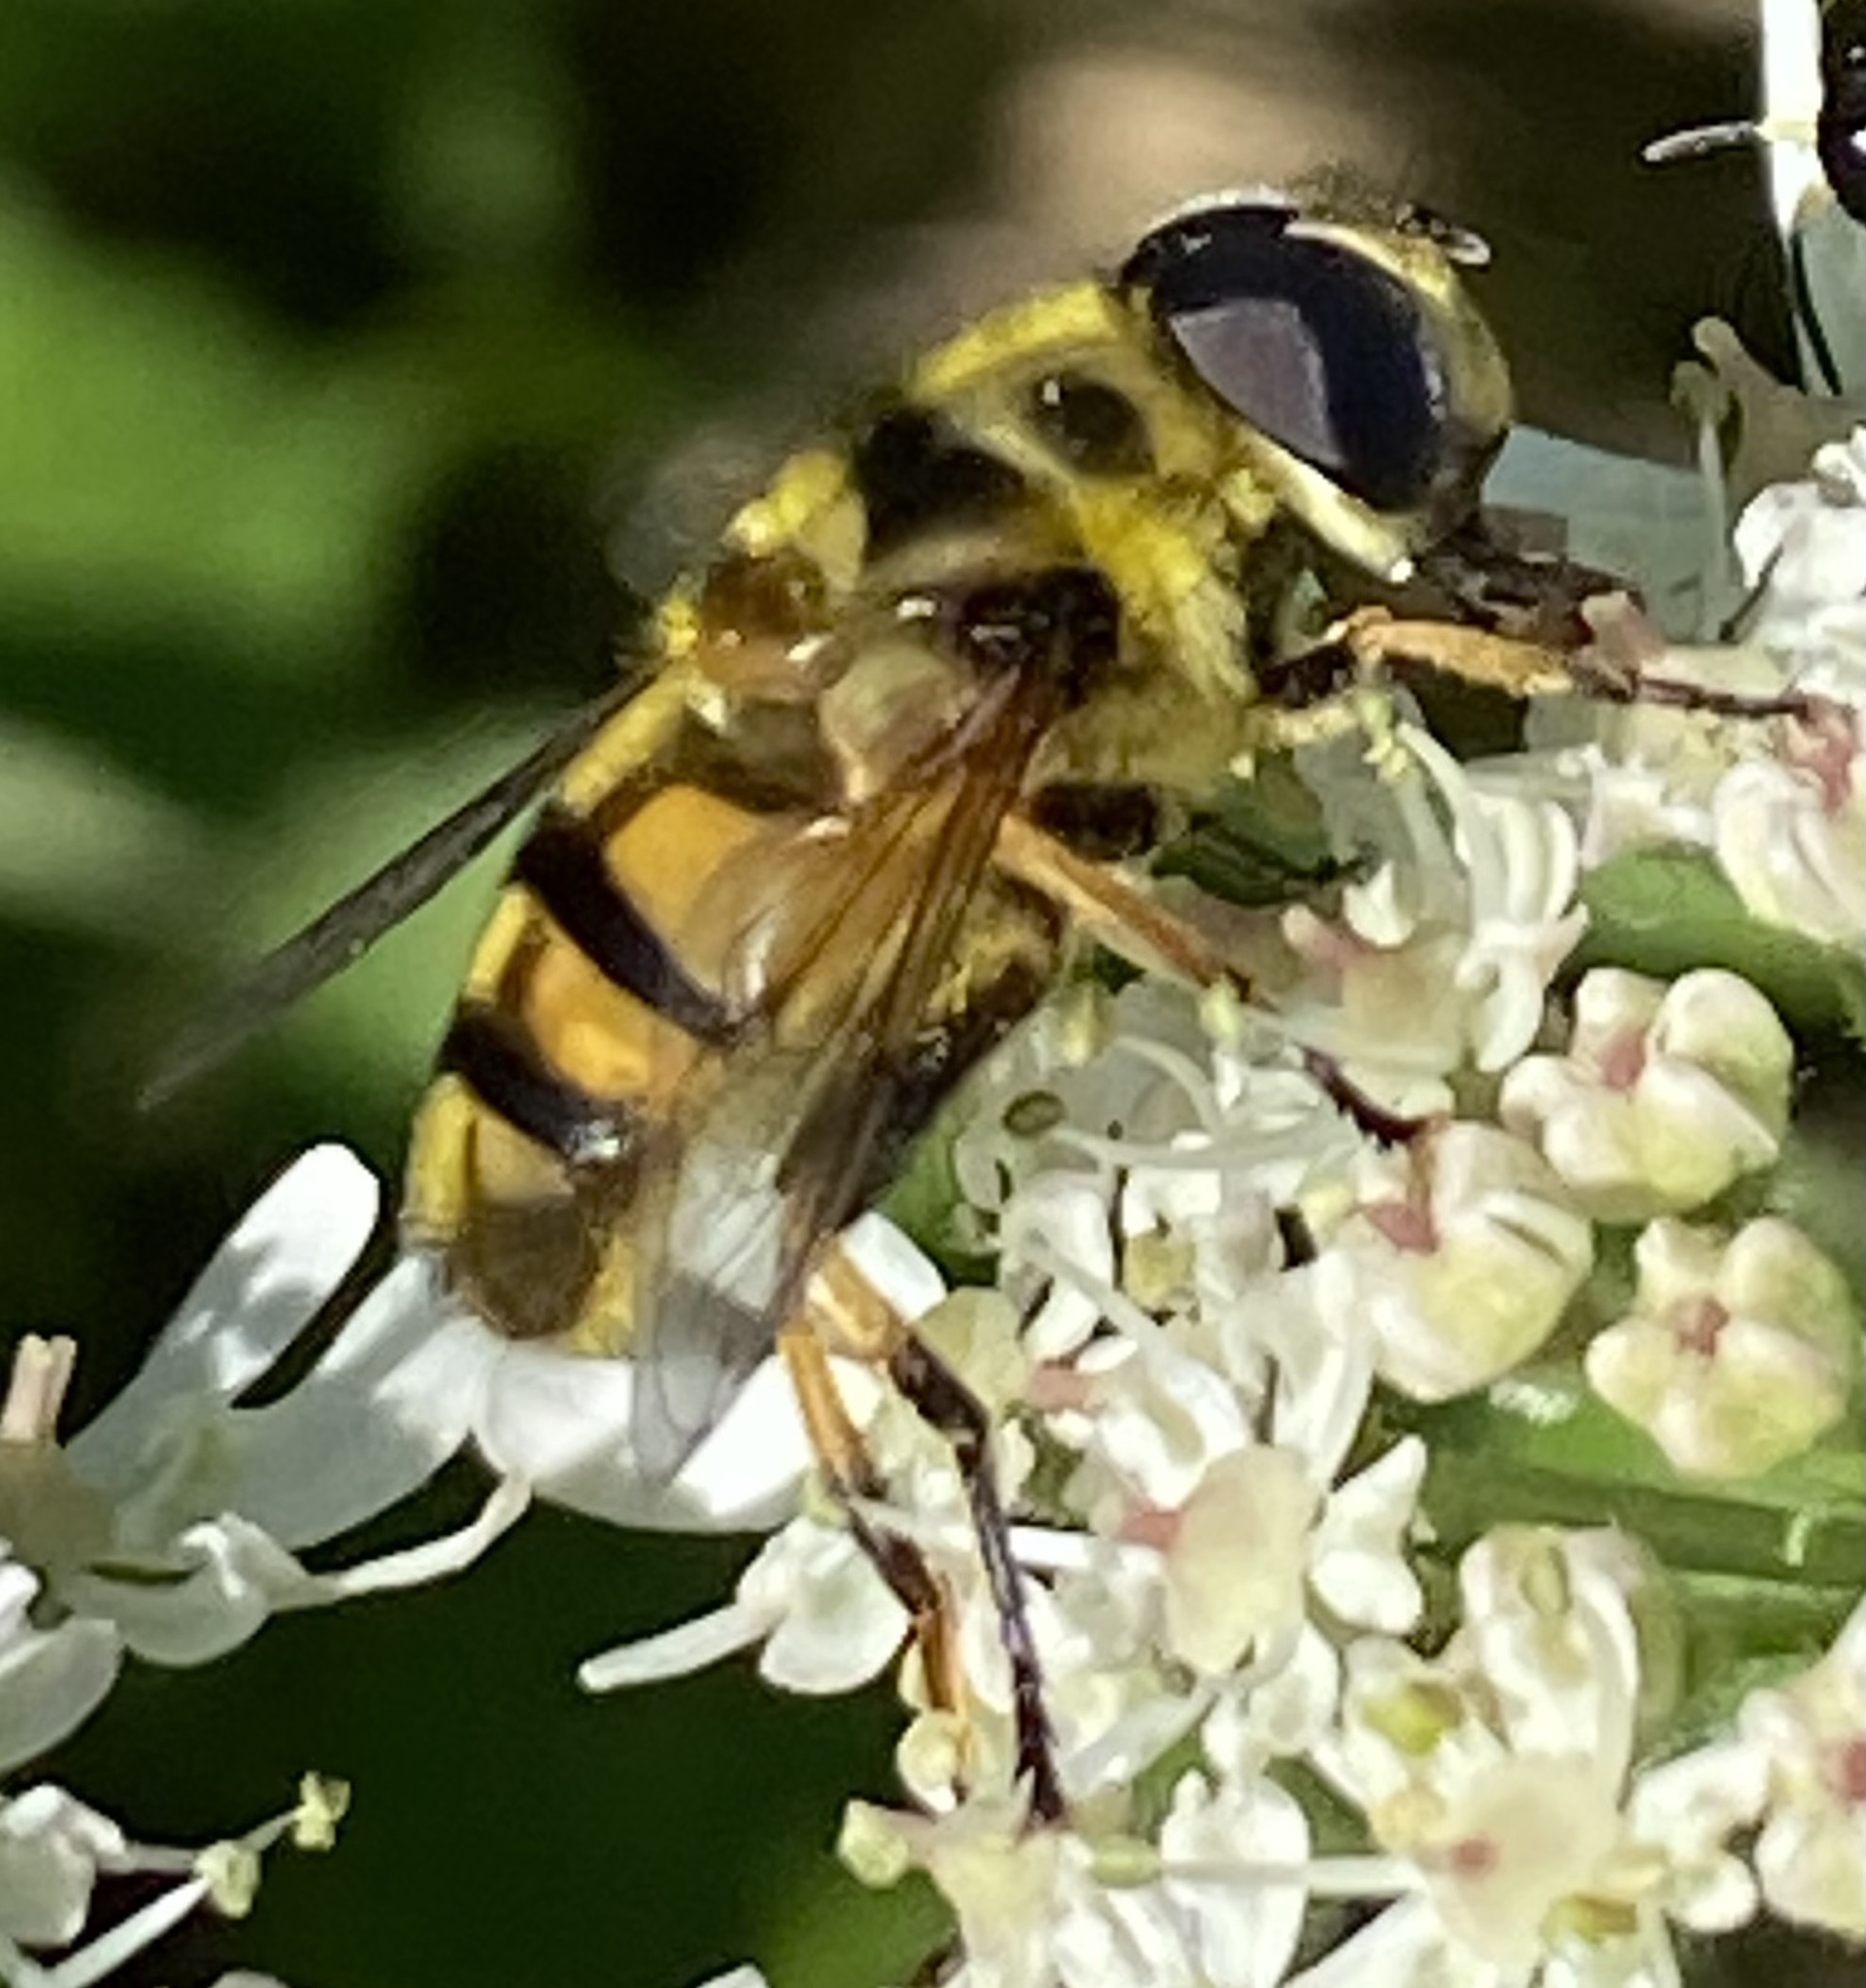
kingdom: Animalia
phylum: Arthropoda
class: Insecta
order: Diptera
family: Syrphidae
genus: Myathropa
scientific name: Myathropa florea
